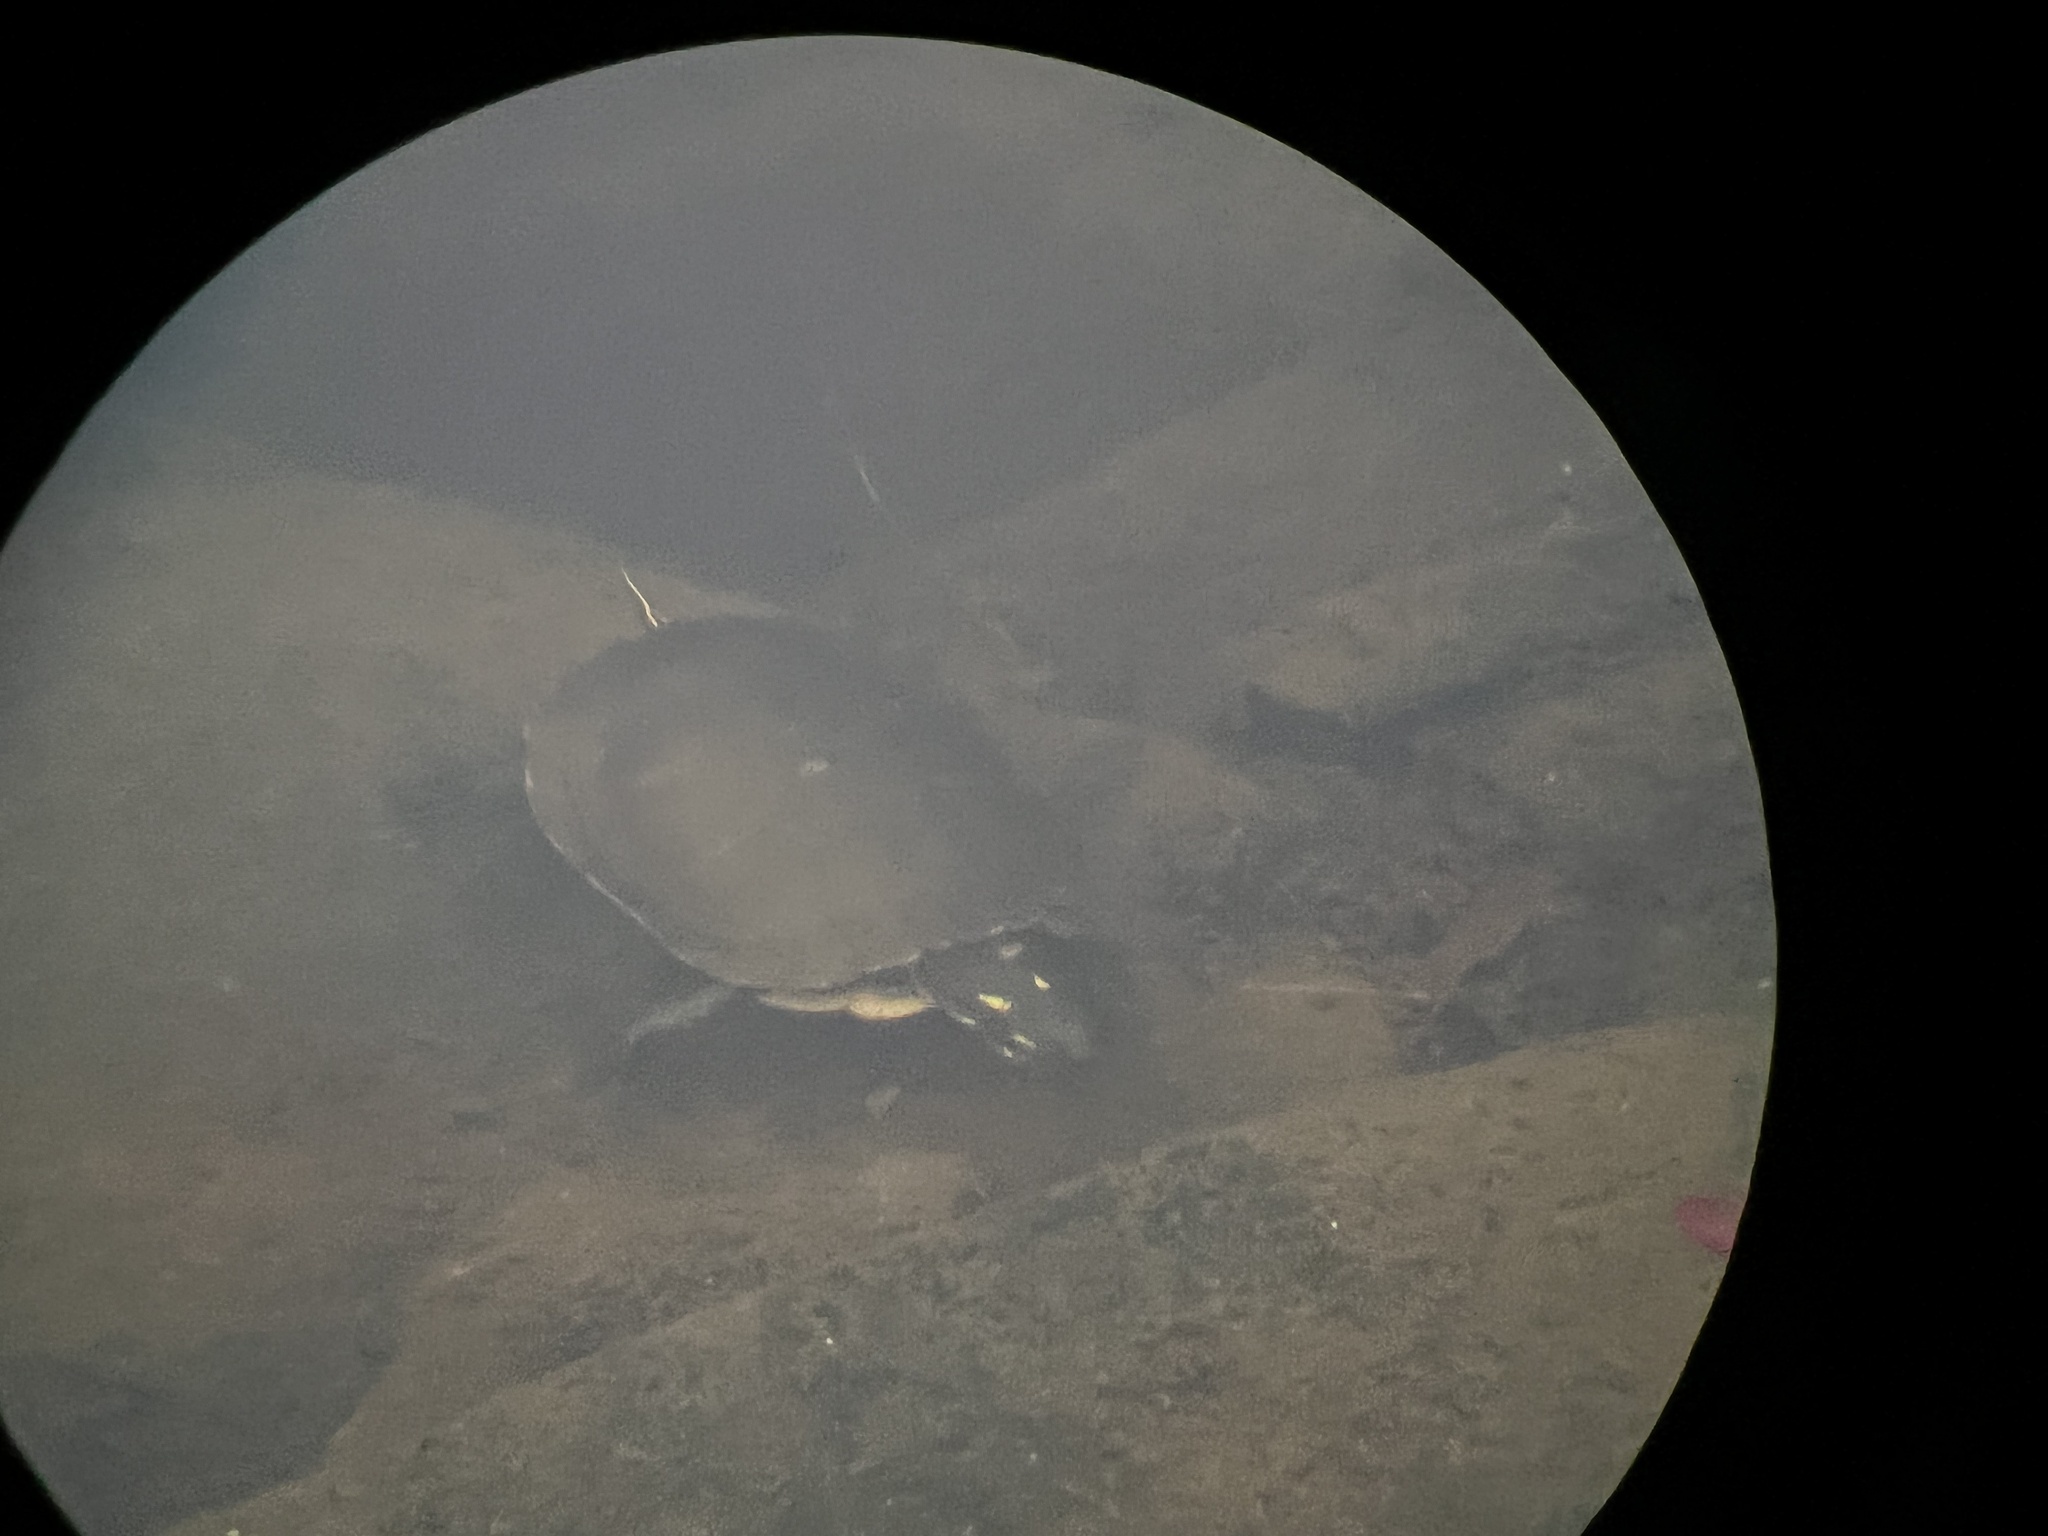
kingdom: Animalia
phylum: Chordata
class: Testudines
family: Emydidae
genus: Chrysemys
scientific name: Chrysemys picta
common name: Painted turtle
